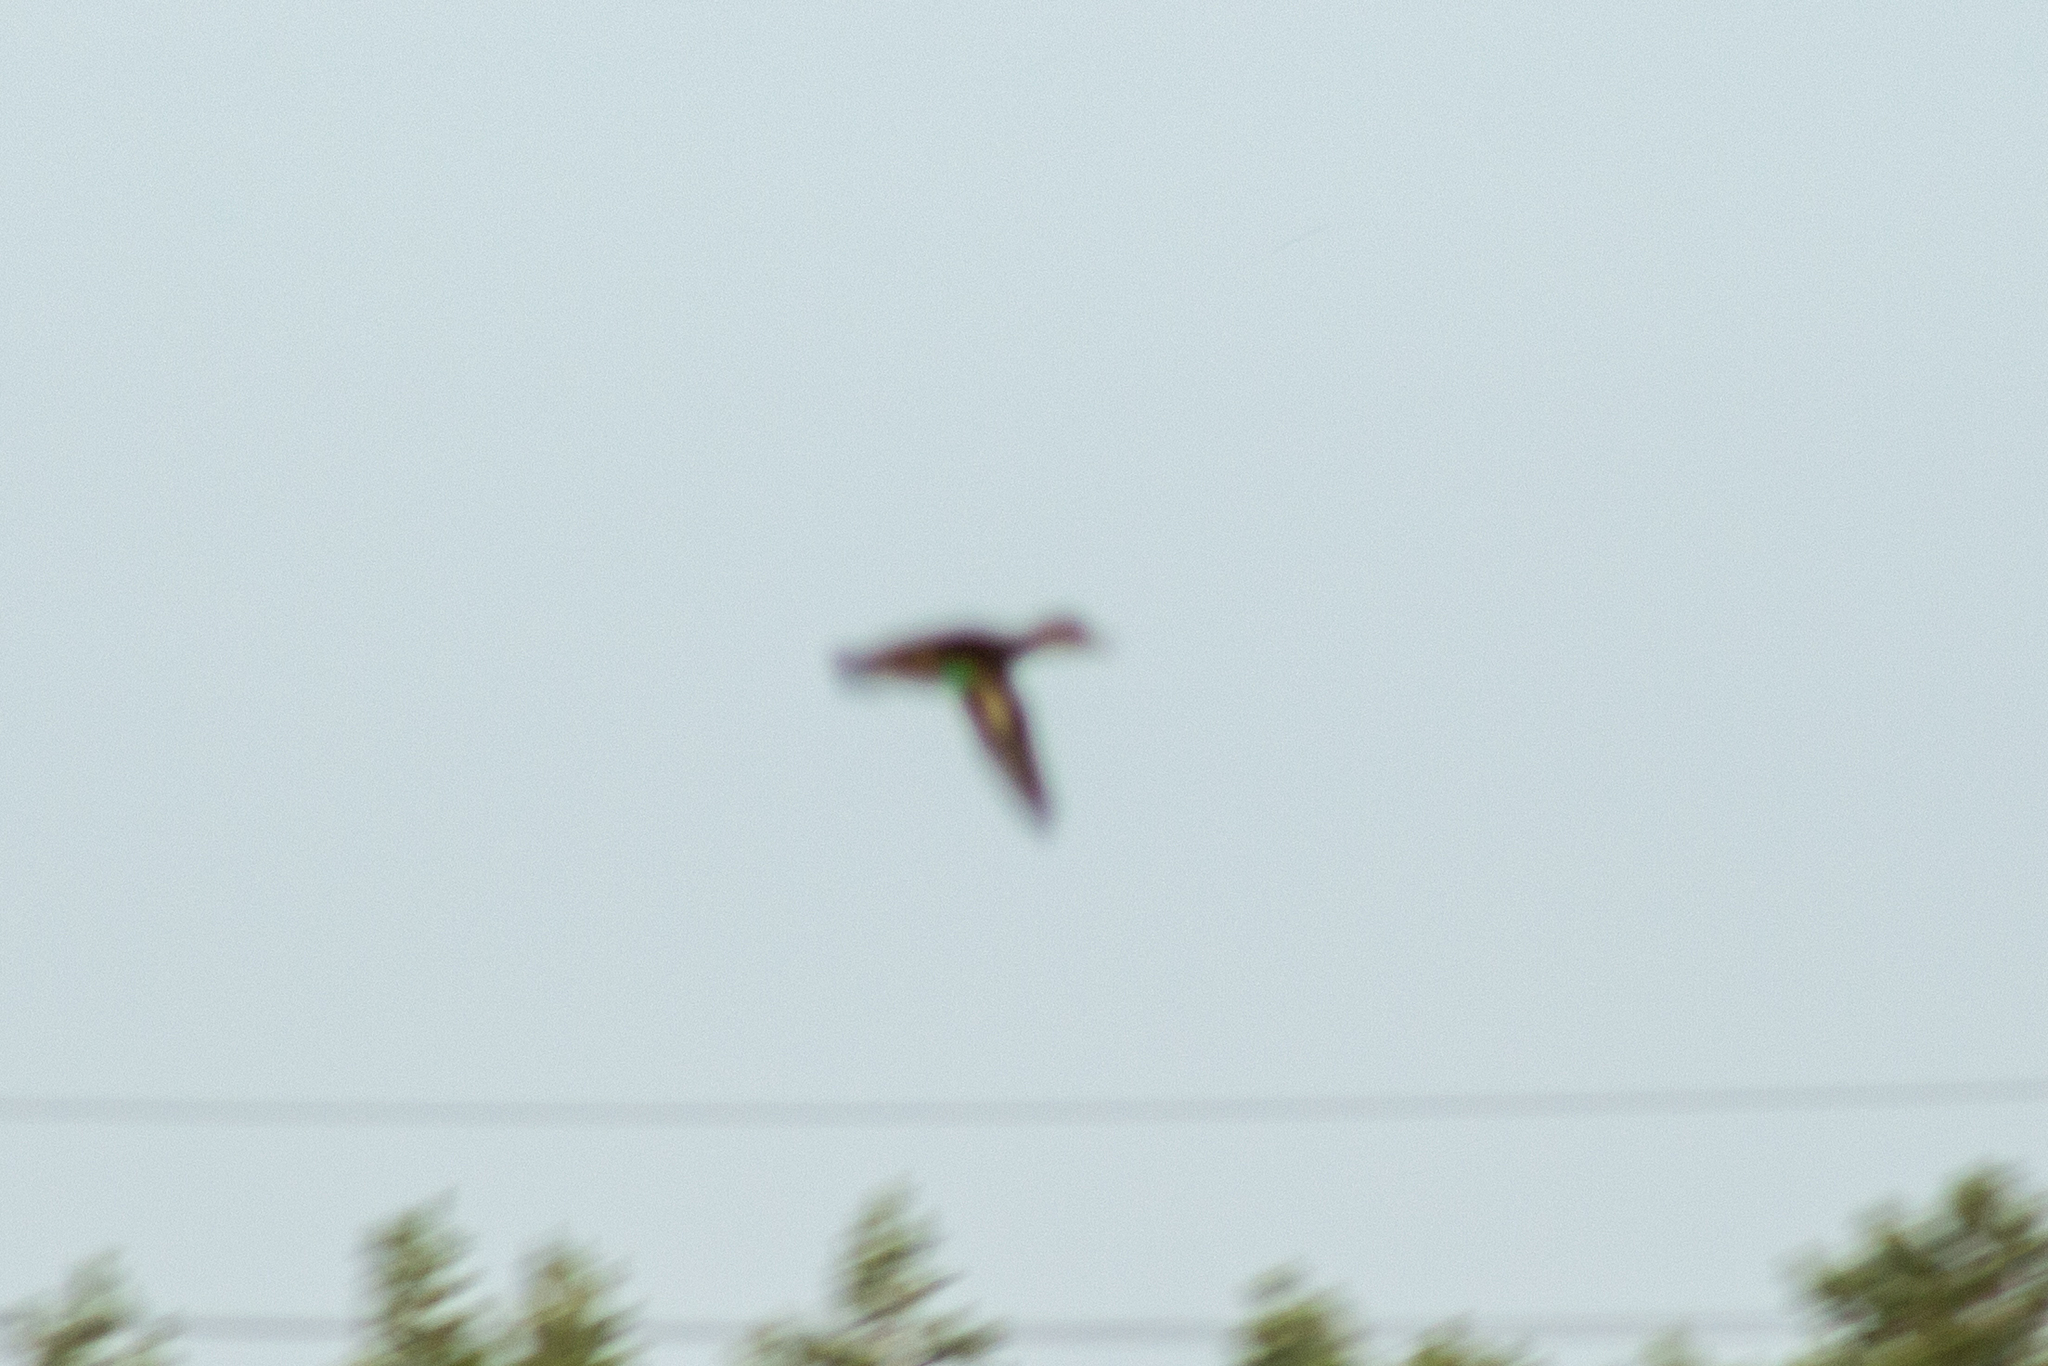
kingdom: Animalia
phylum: Chordata
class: Aves
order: Anseriformes
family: Anatidae
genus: Anas
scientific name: Anas crecca
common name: Eurasian teal
